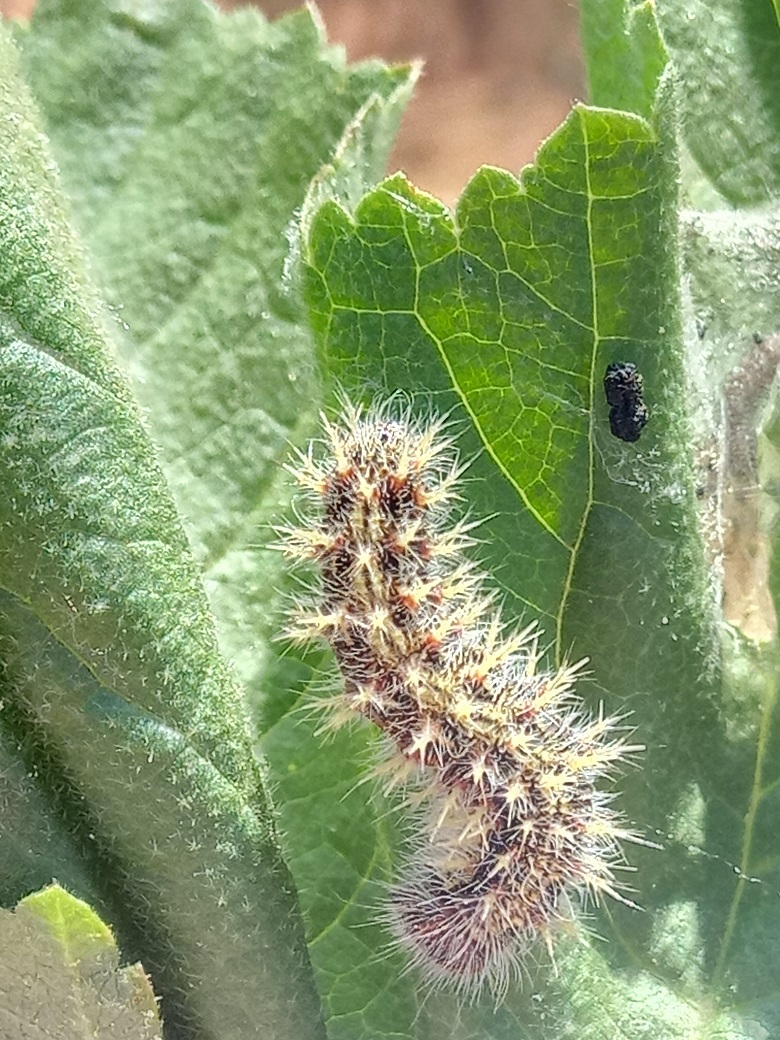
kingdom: Animalia
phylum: Arthropoda
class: Insecta
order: Lepidoptera
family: Nymphalidae
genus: Vanessa
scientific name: Vanessa cardui
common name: Painted lady
